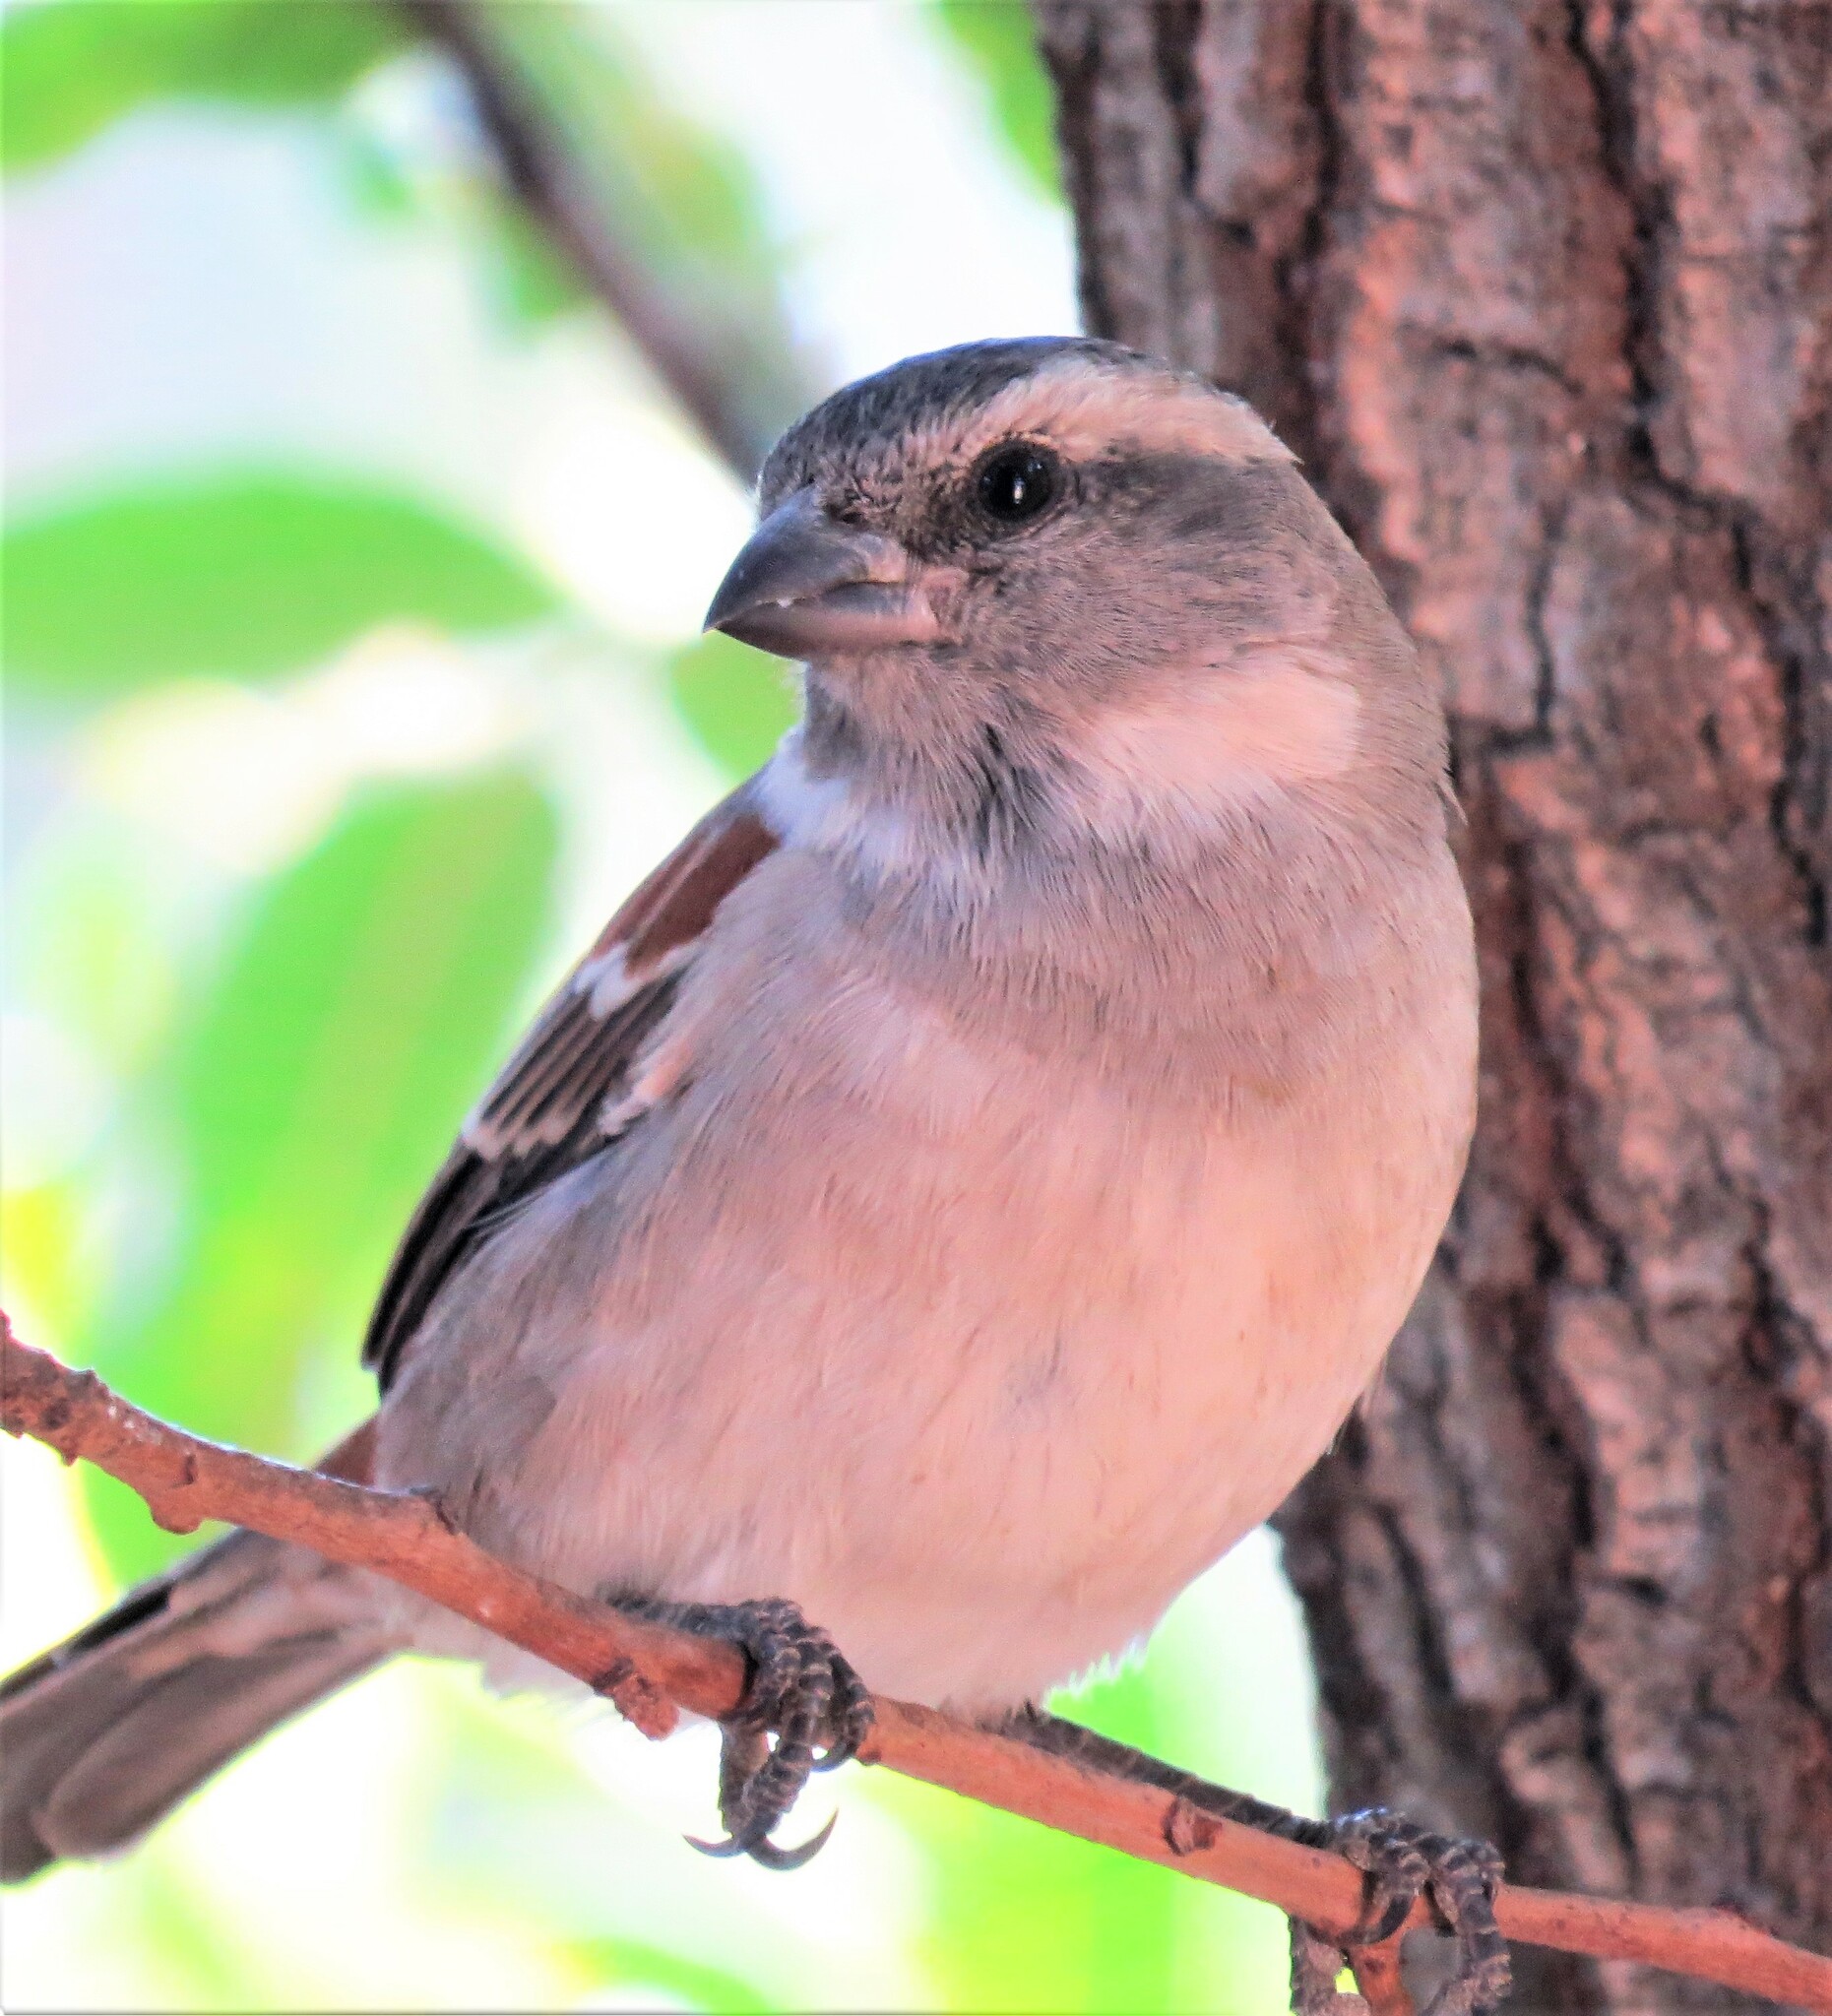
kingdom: Animalia
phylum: Chordata
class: Aves
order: Passeriformes
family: Passeridae
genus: Passer
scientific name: Passer melanurus
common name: Cape sparrow
